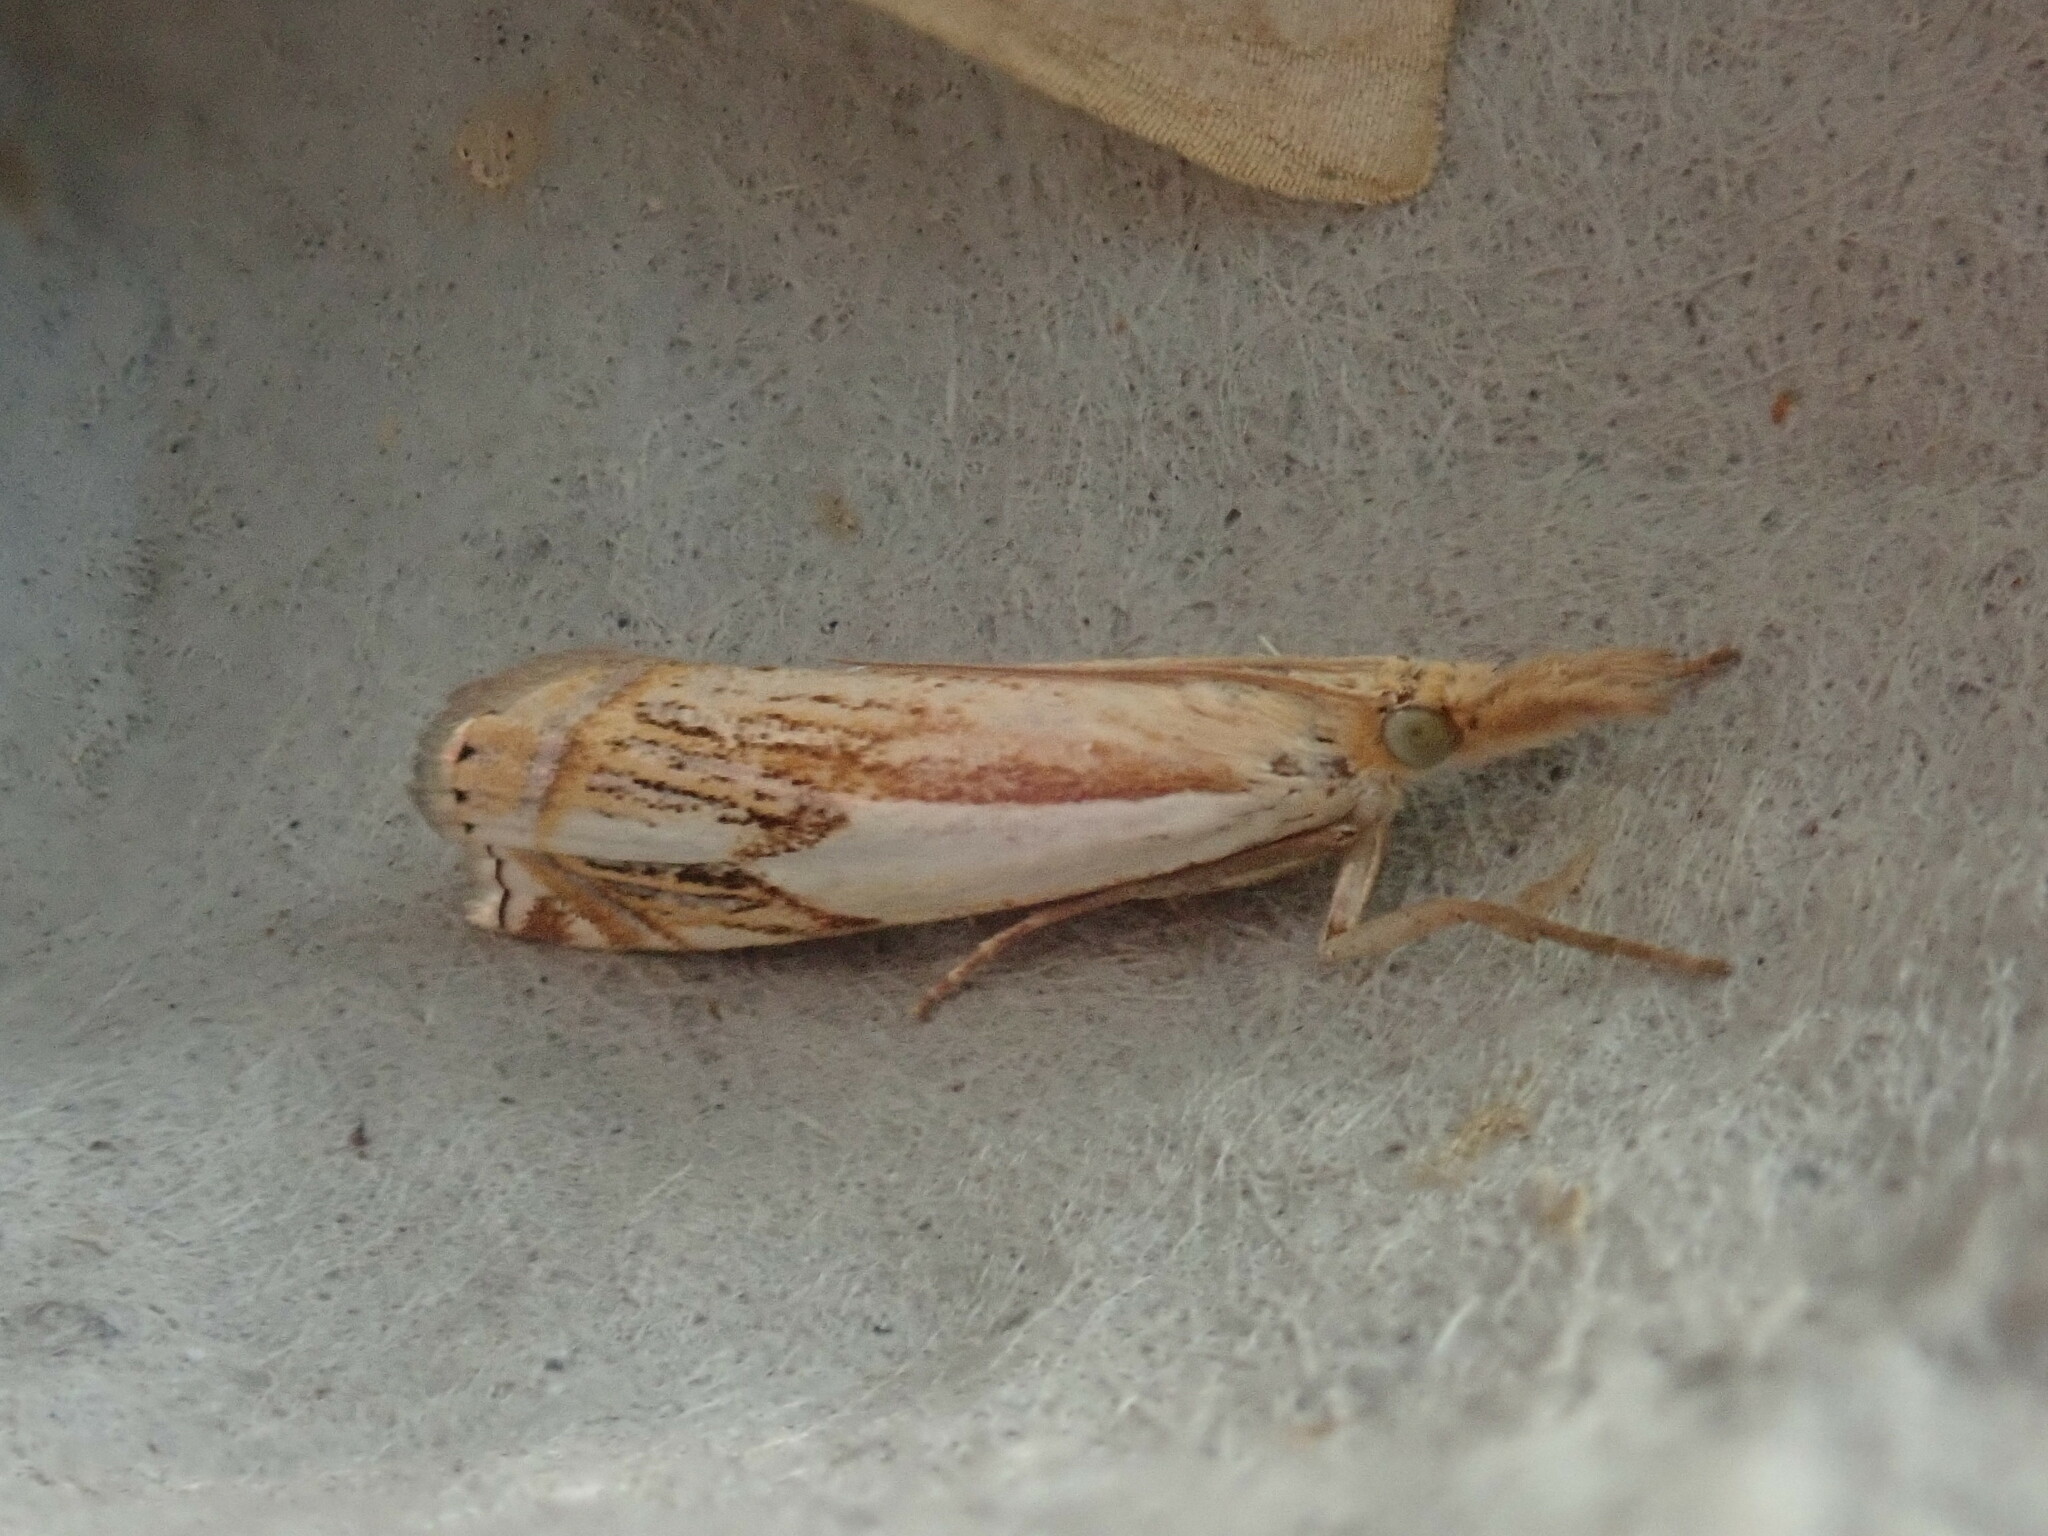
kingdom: Animalia
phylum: Arthropoda
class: Insecta
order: Lepidoptera
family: Crambidae
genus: Crambus
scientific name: Crambus agitatellus
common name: Double-banded grass-veneer
